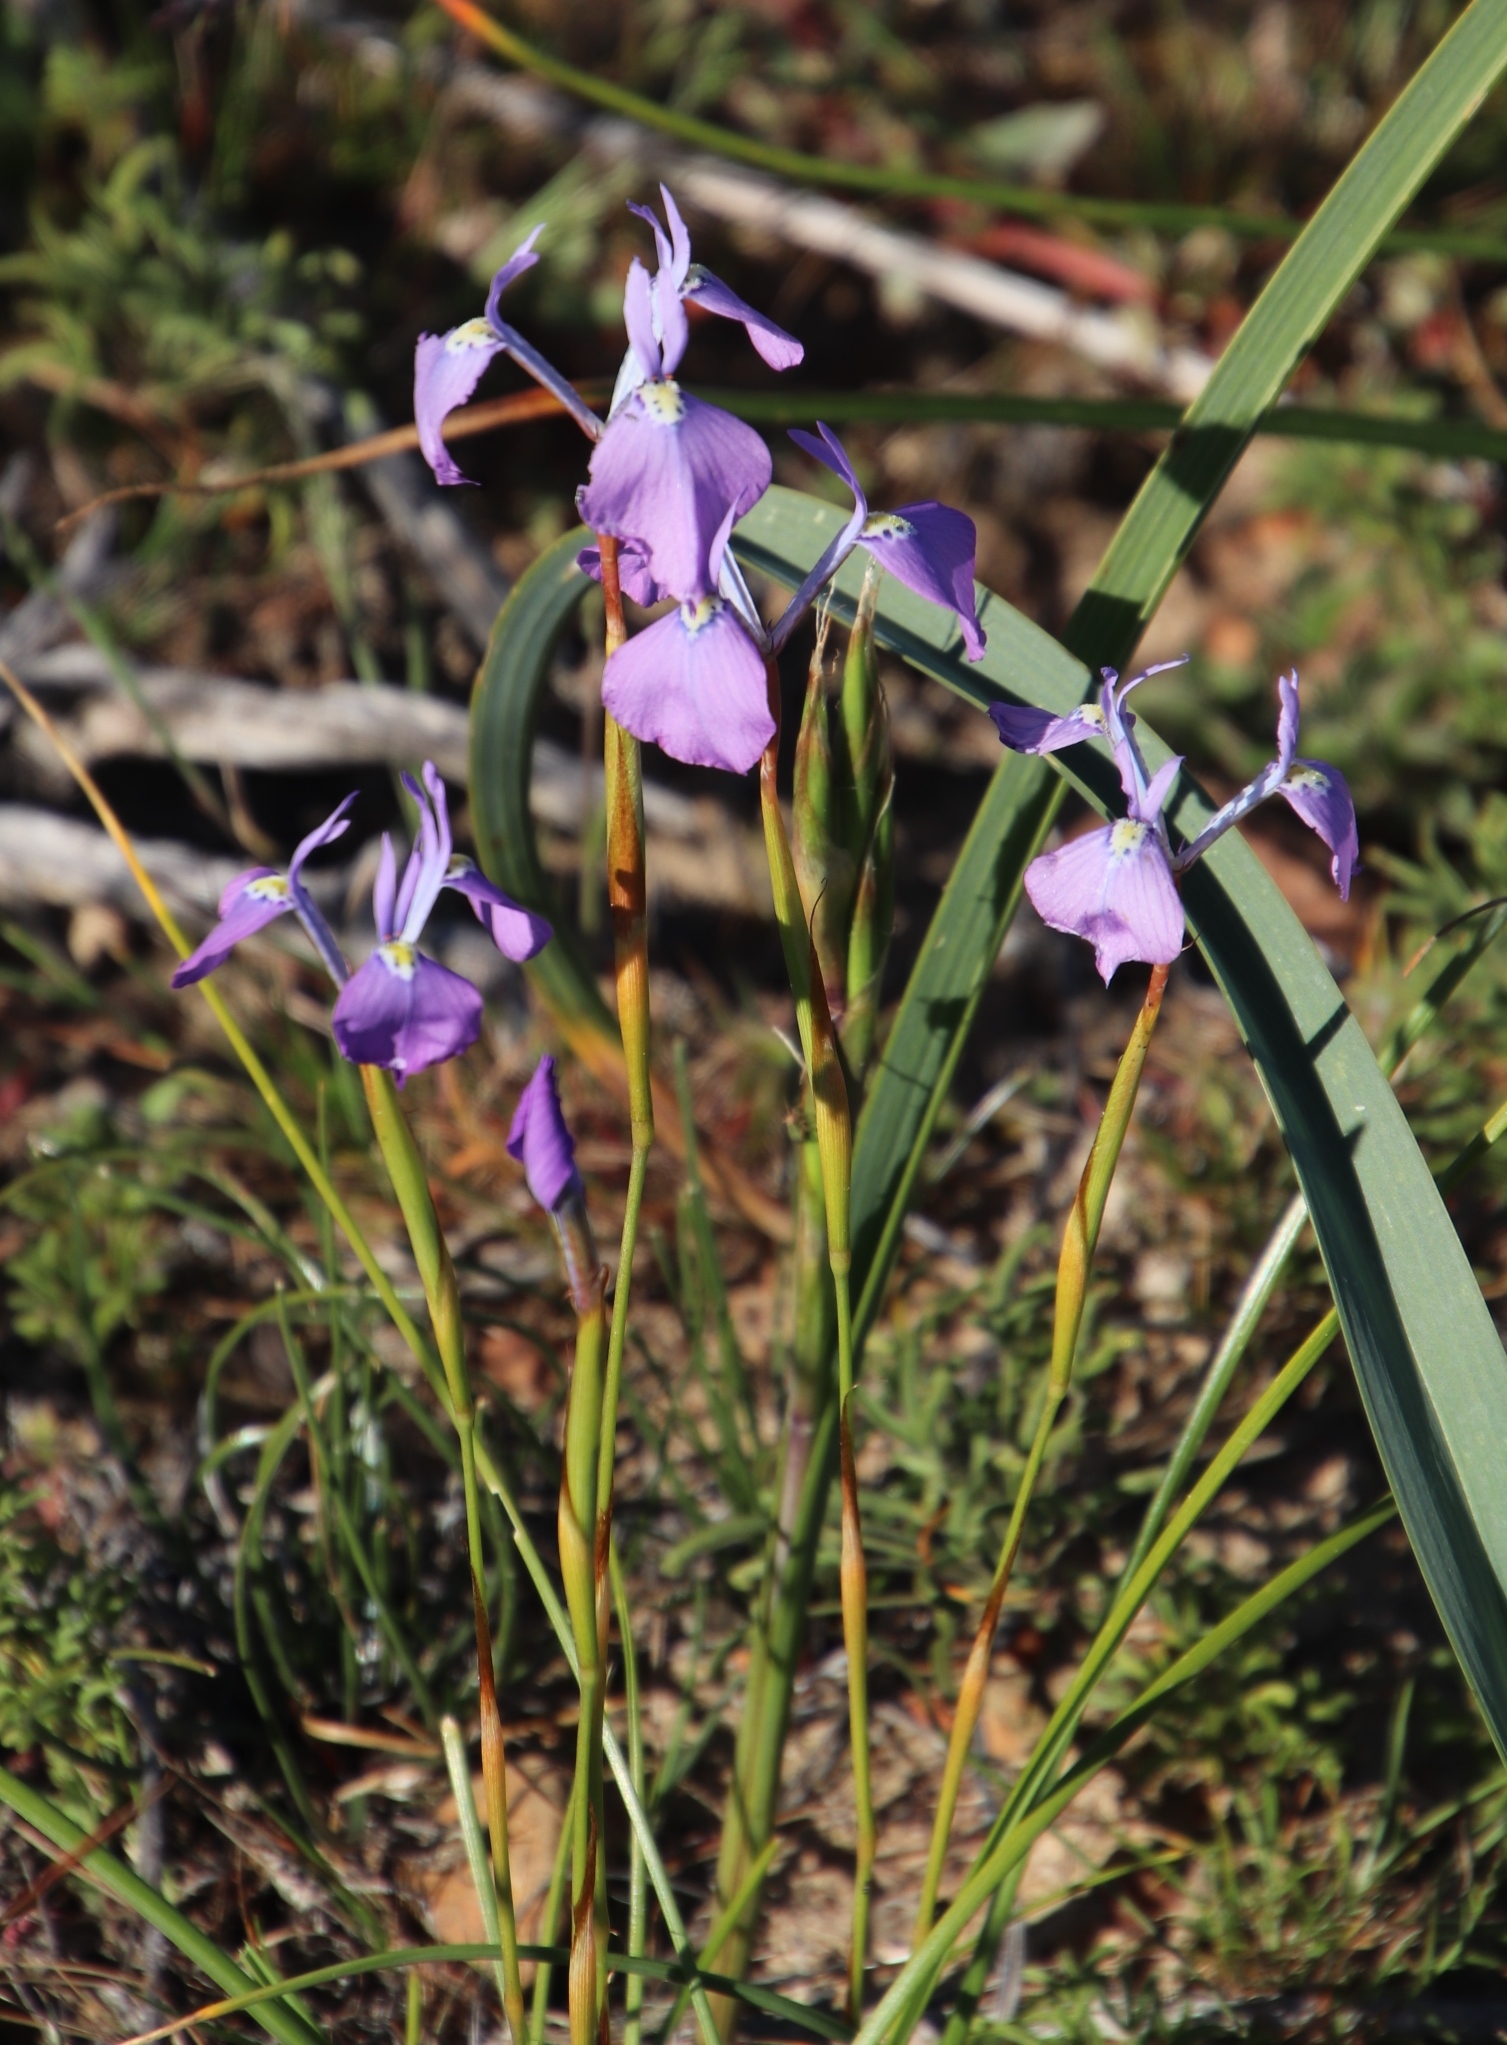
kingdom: Plantae
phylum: Tracheophyta
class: Liliopsida
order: Asparagales
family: Iridaceae
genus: Moraea
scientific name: Moraea grandis
